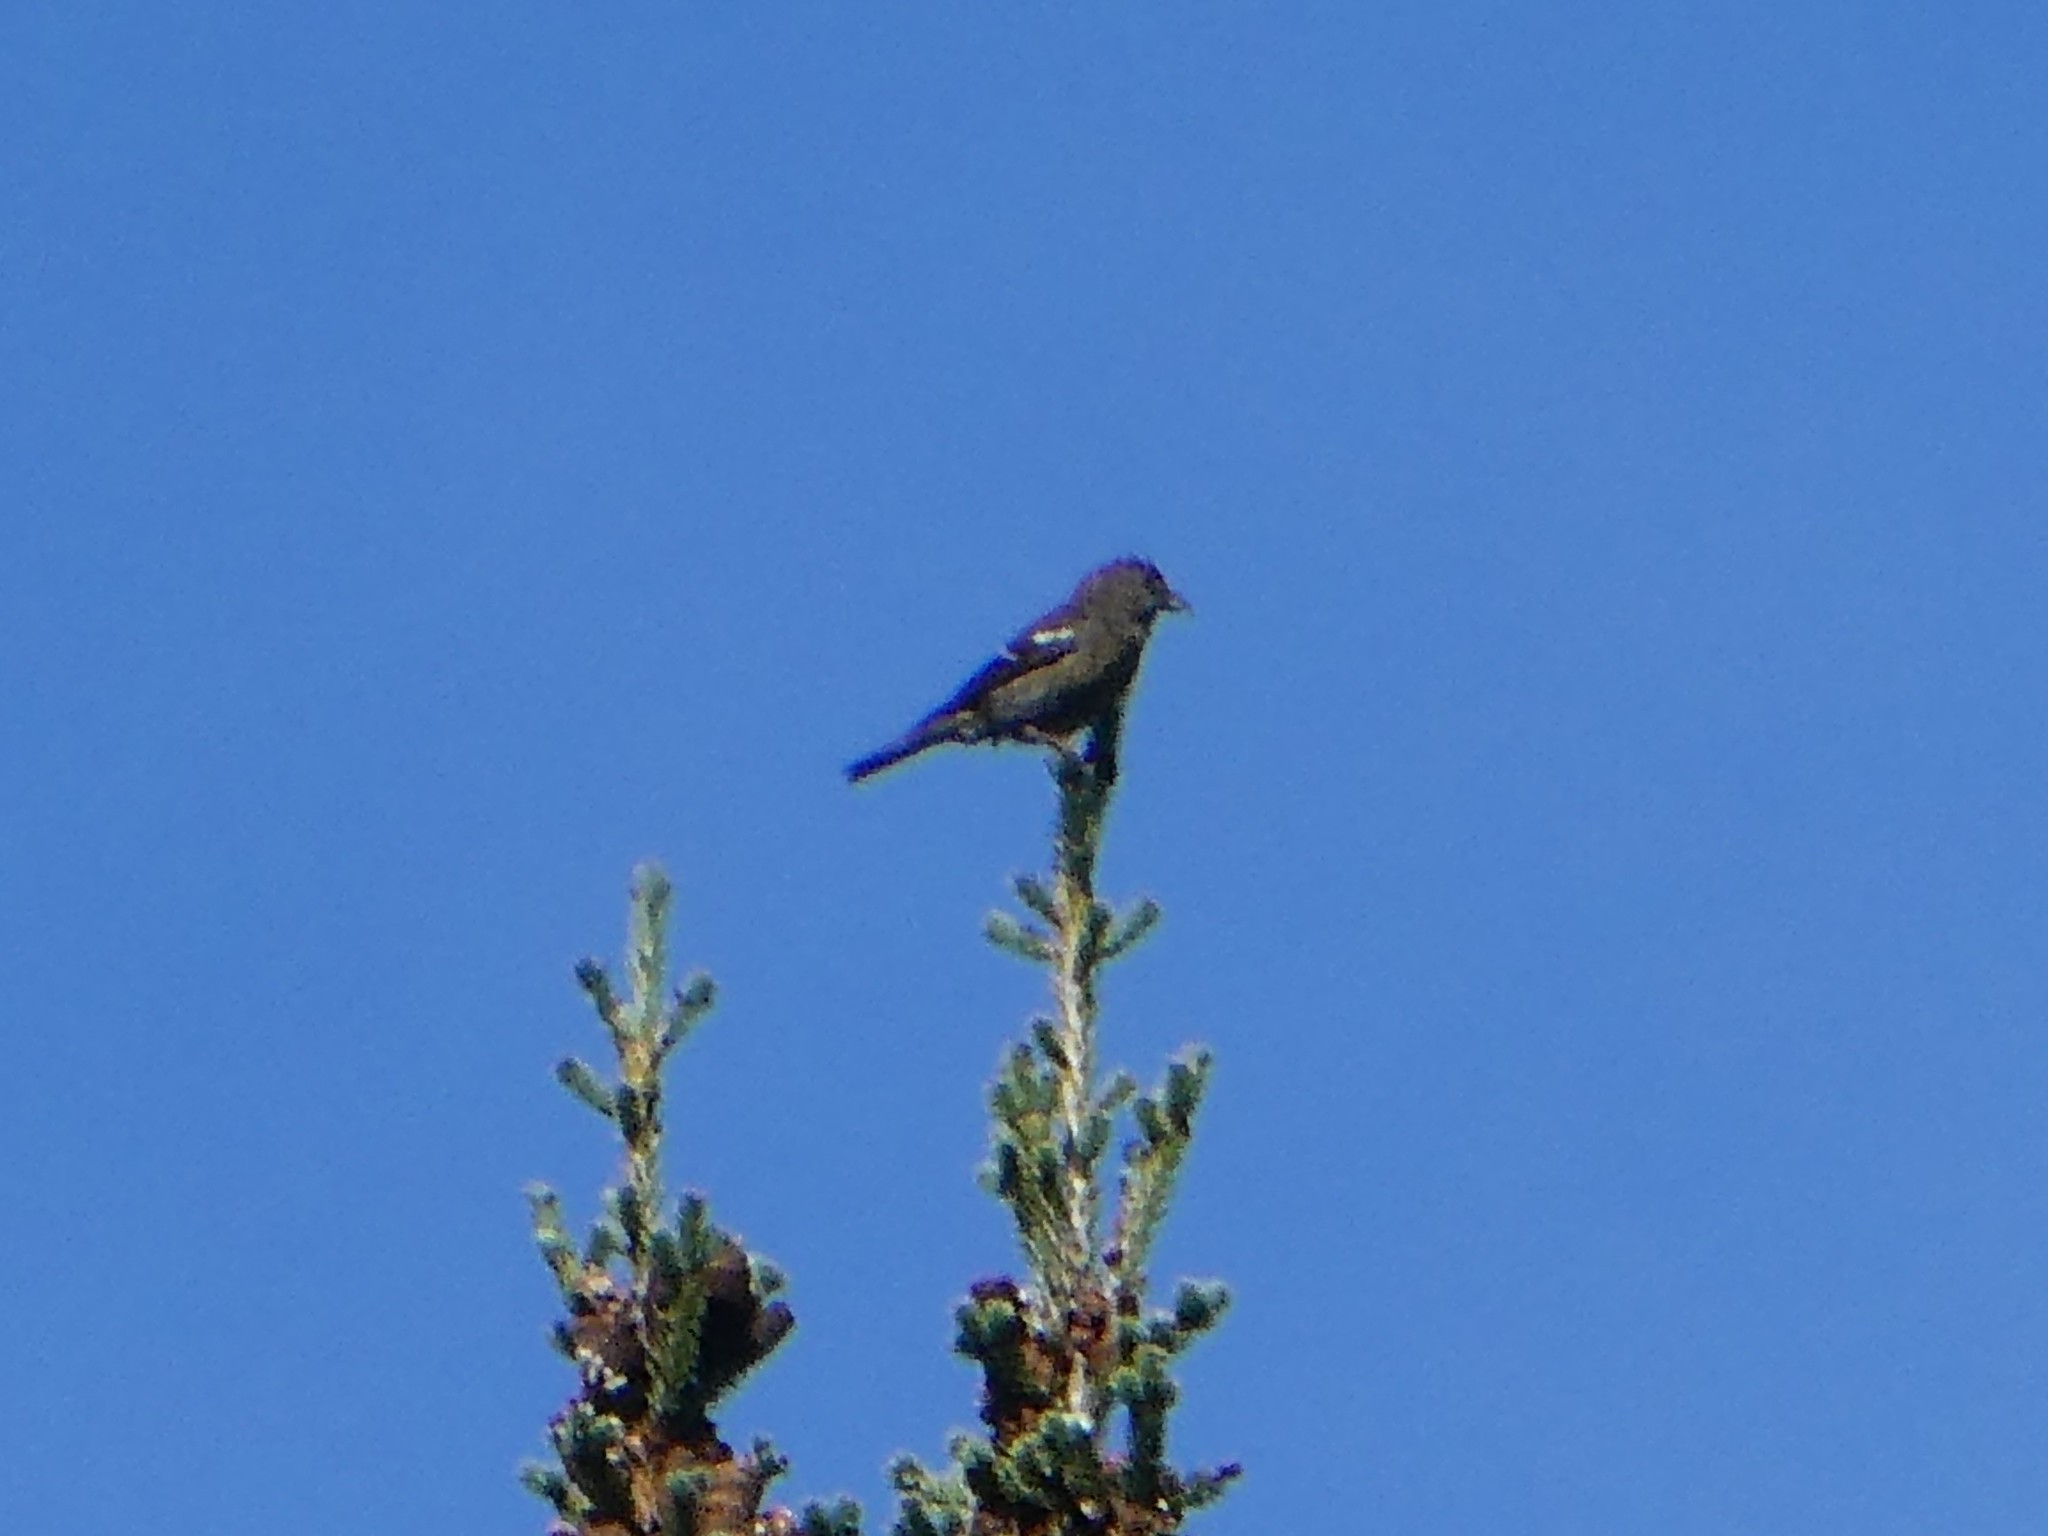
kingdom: Animalia
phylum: Chordata
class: Aves
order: Passeriformes
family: Fringillidae
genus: Loxia
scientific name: Loxia leucoptera
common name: Two-barred crossbill
